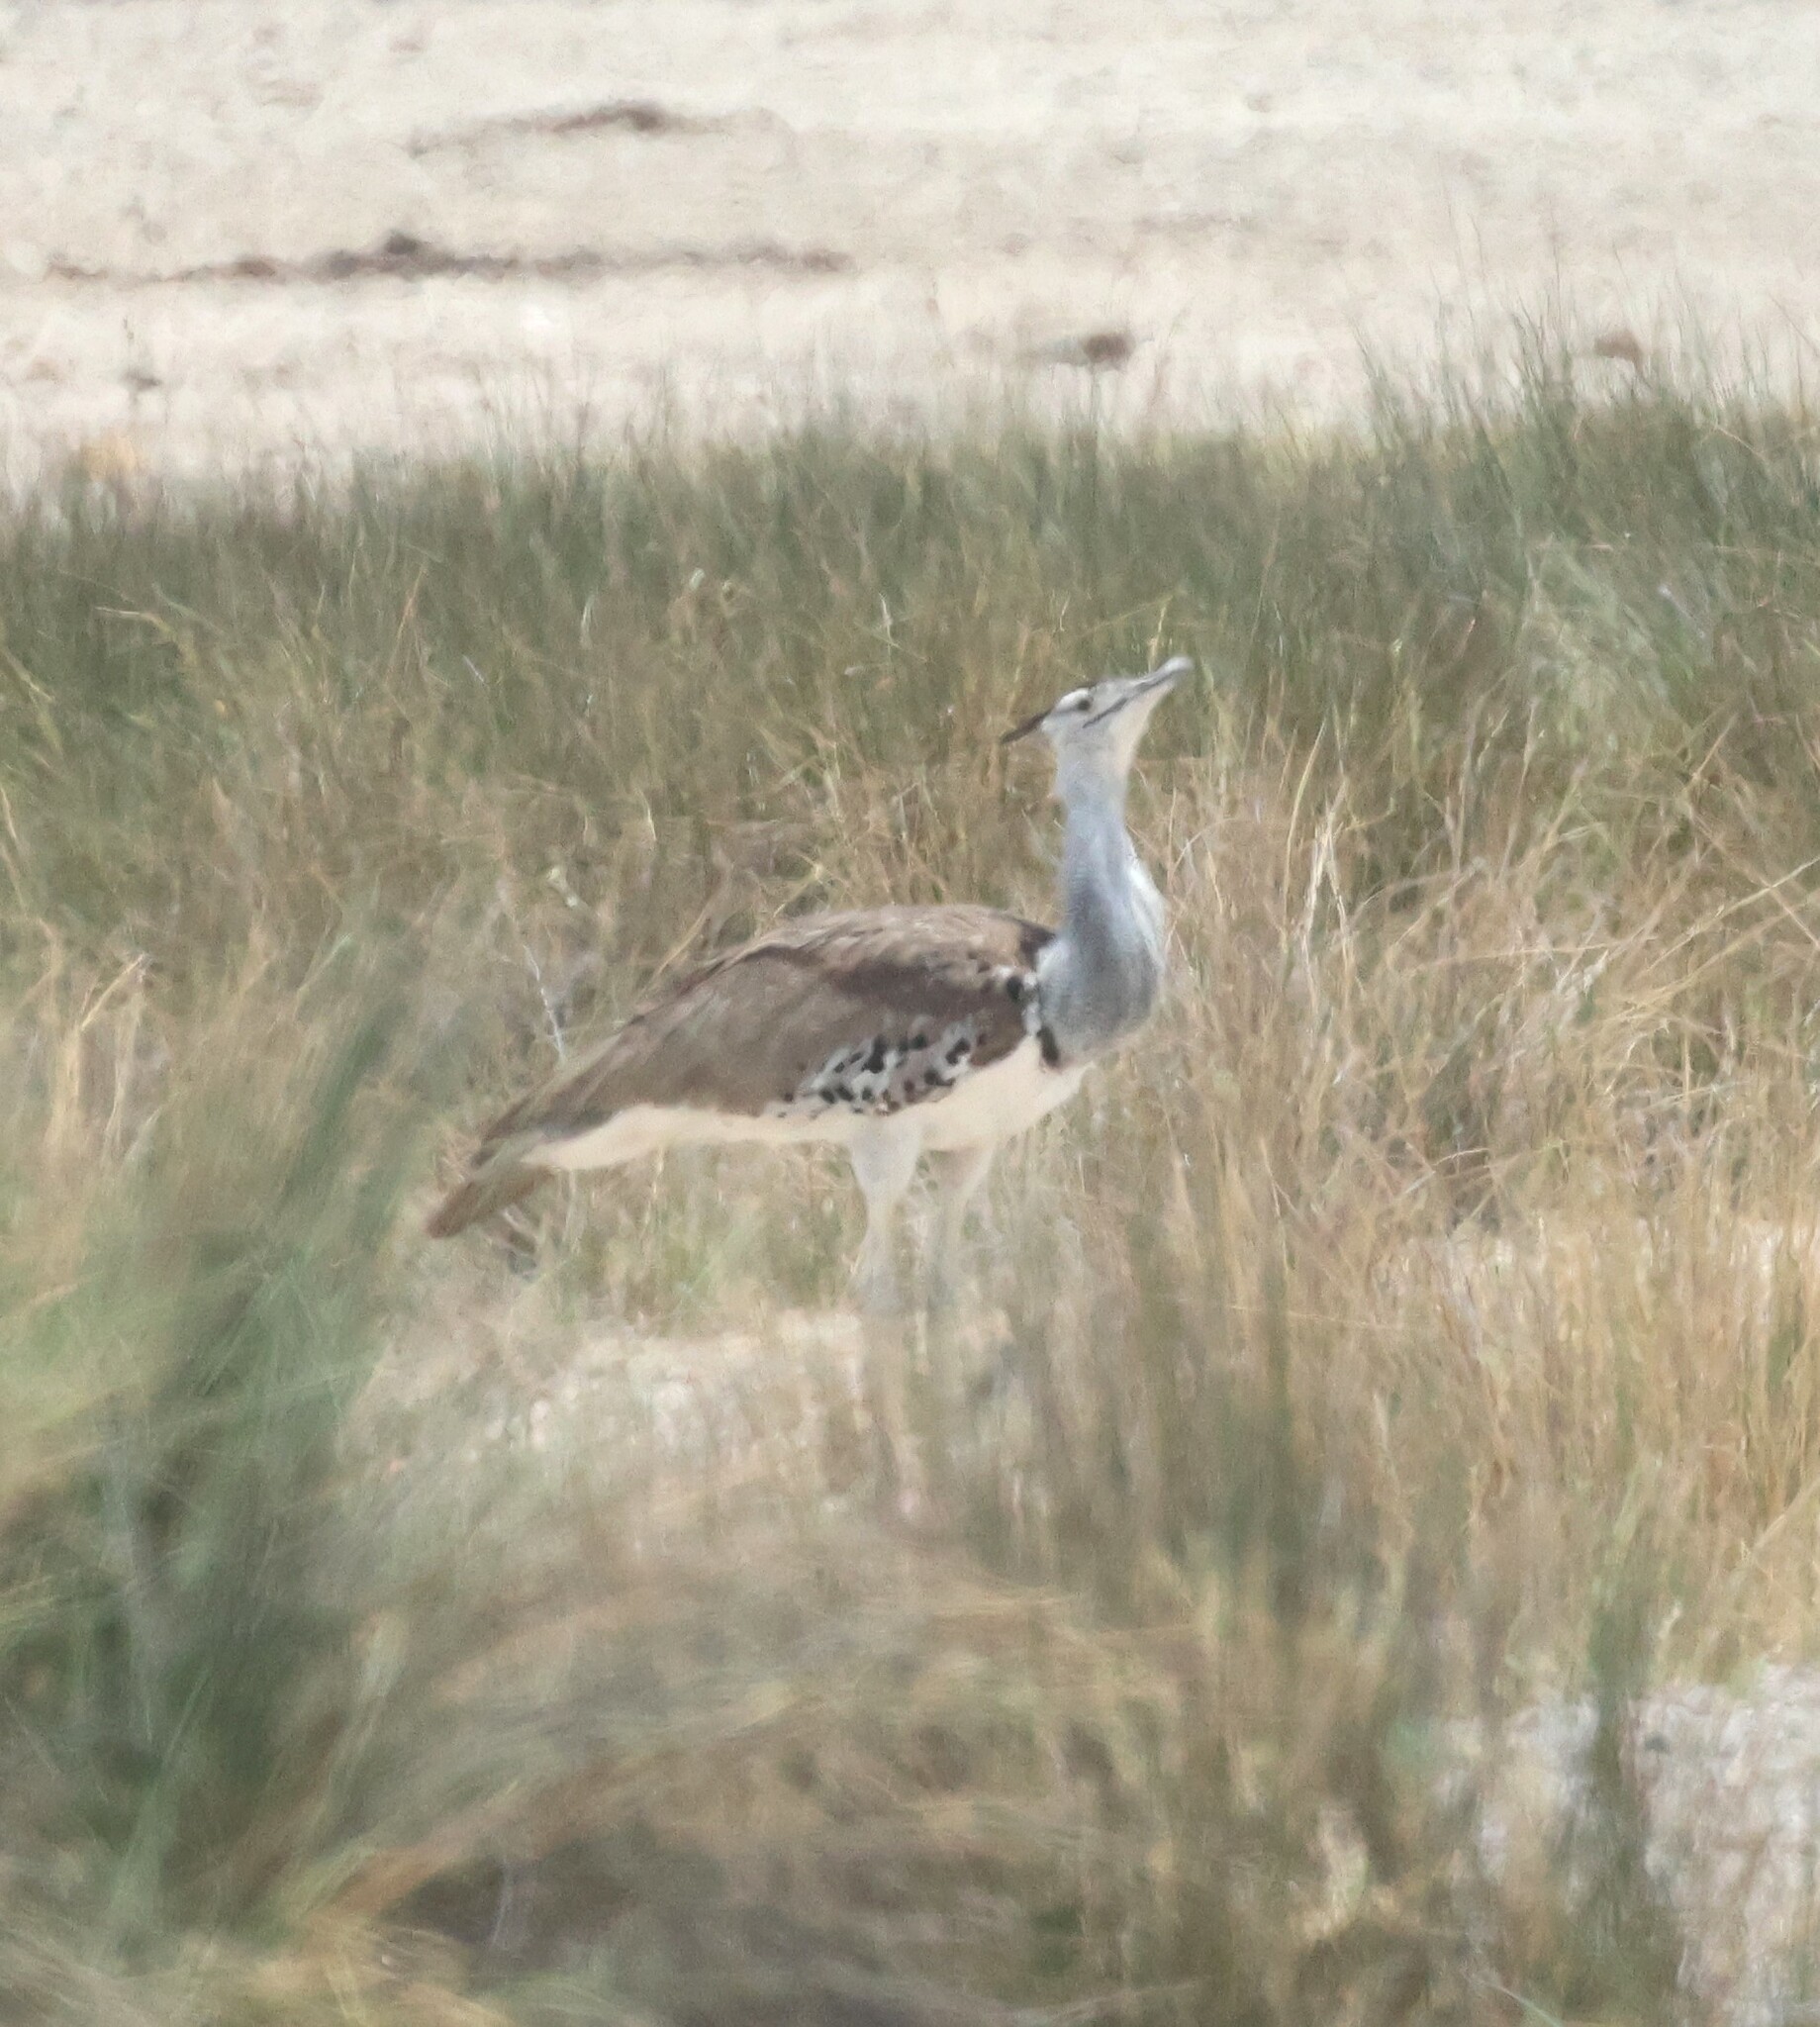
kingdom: Animalia
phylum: Chordata
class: Aves
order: Otidiformes
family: Otididae
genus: Ardeotis
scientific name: Ardeotis kori
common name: Kori bustard
